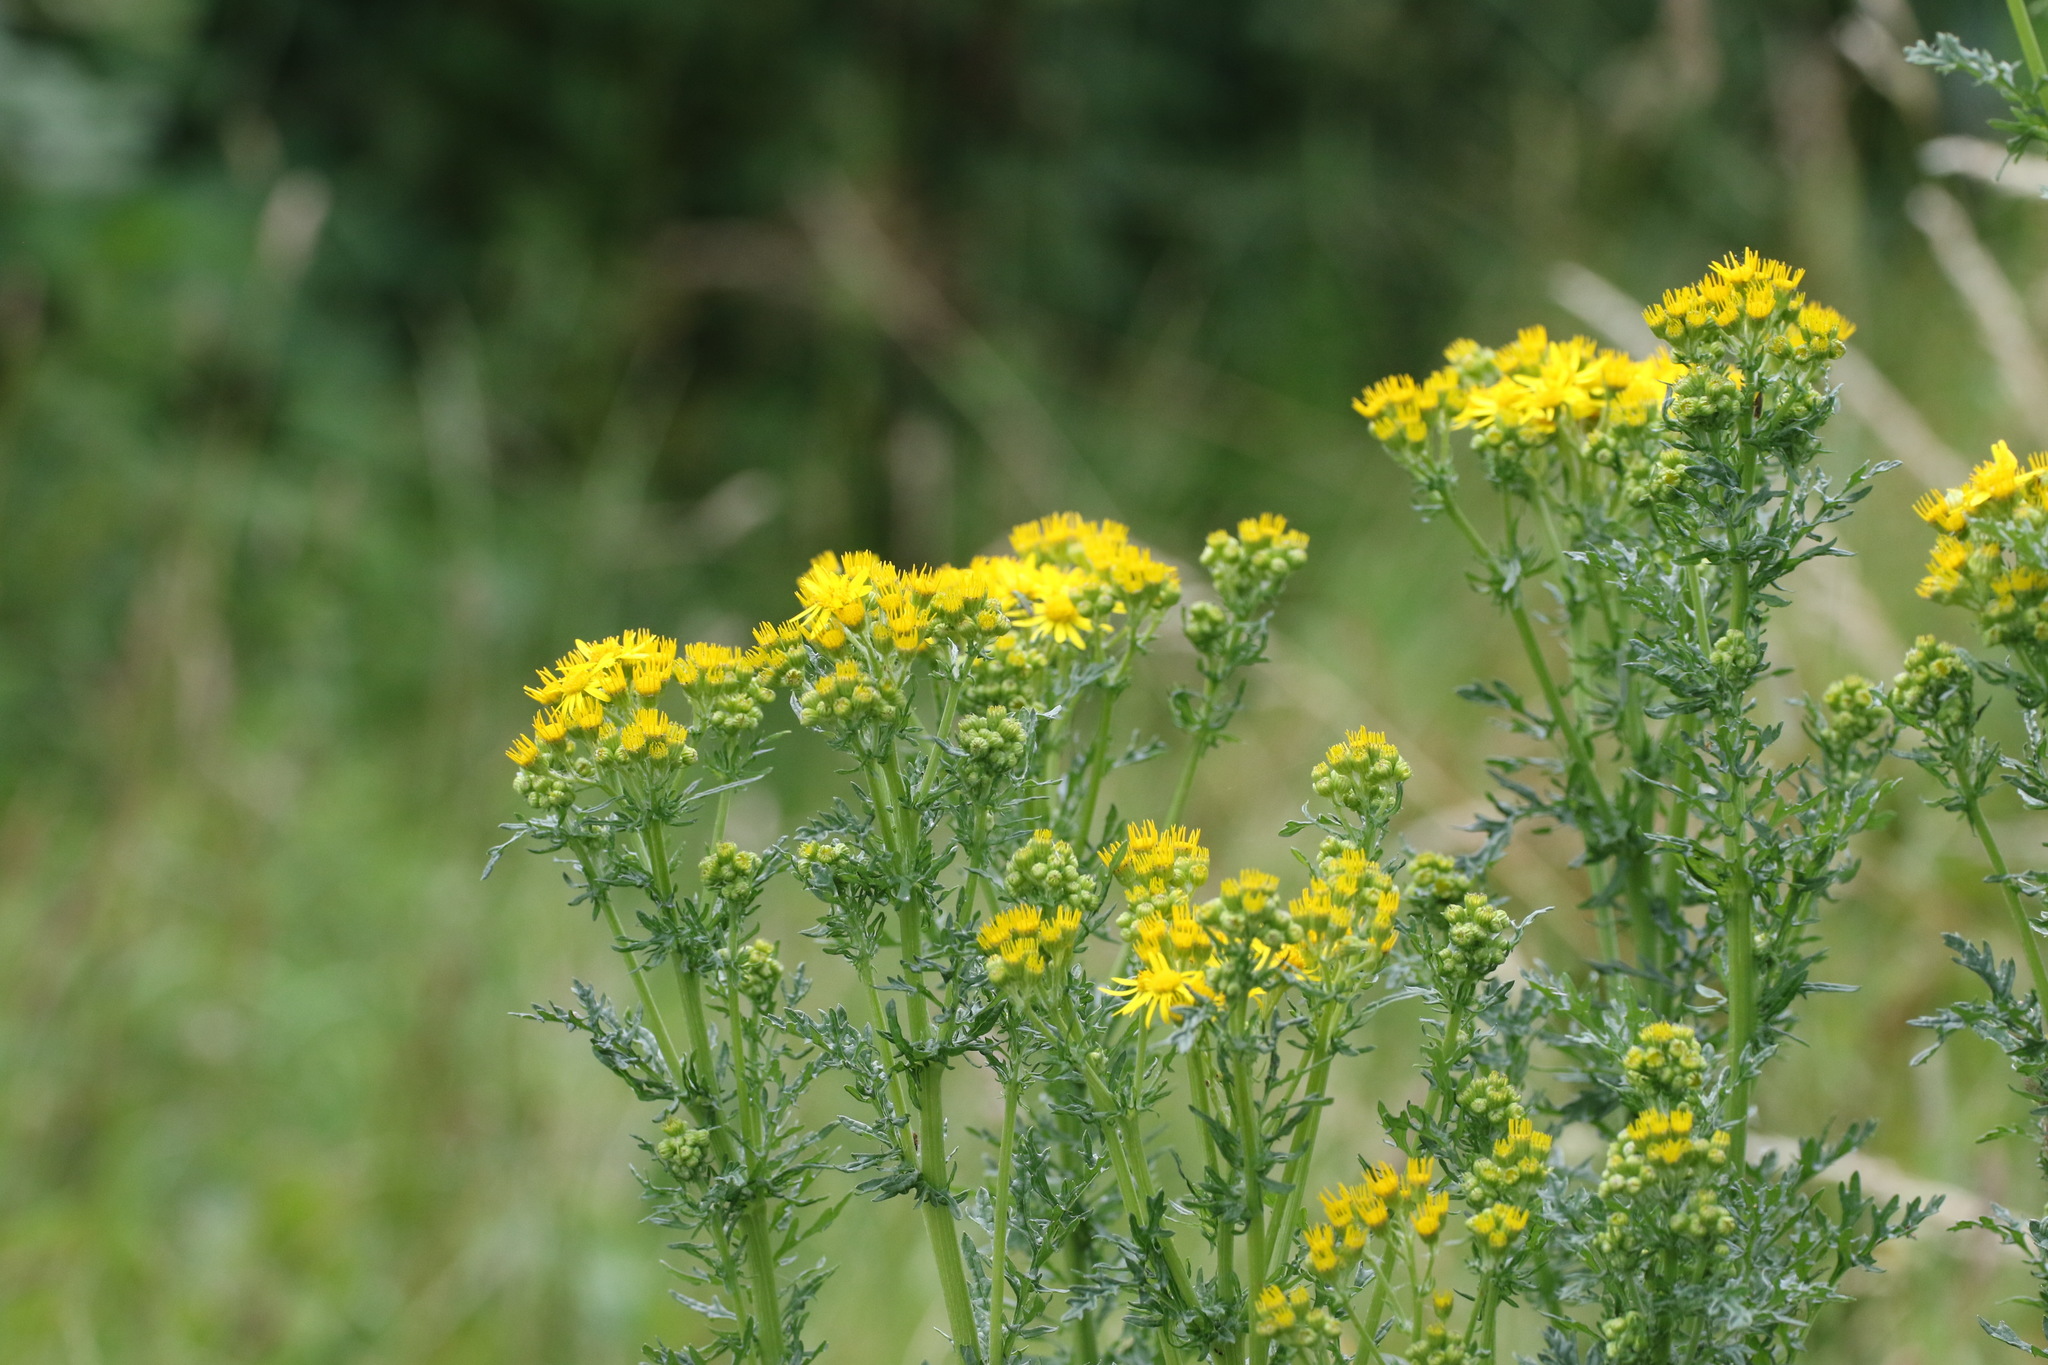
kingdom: Plantae
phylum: Tracheophyta
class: Magnoliopsida
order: Asterales
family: Asteraceae
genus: Jacobaea
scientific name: Jacobaea vulgaris
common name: Stinking willie
